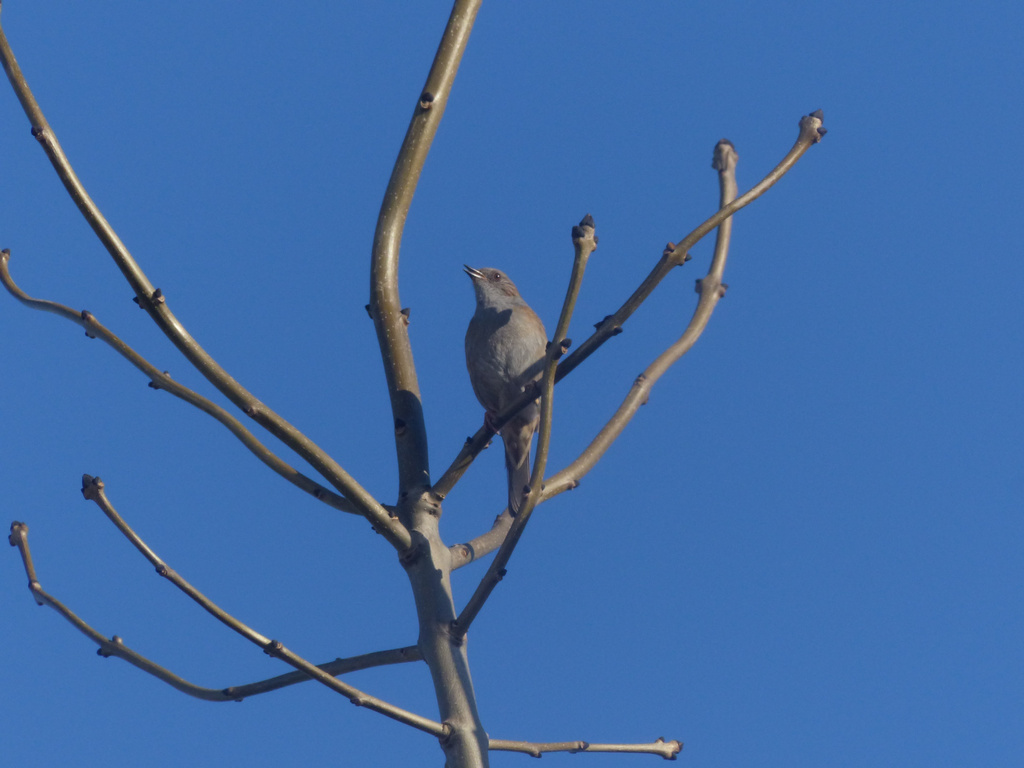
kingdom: Animalia
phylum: Chordata
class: Aves
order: Passeriformes
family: Prunellidae
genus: Prunella
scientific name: Prunella modularis
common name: Dunnock
